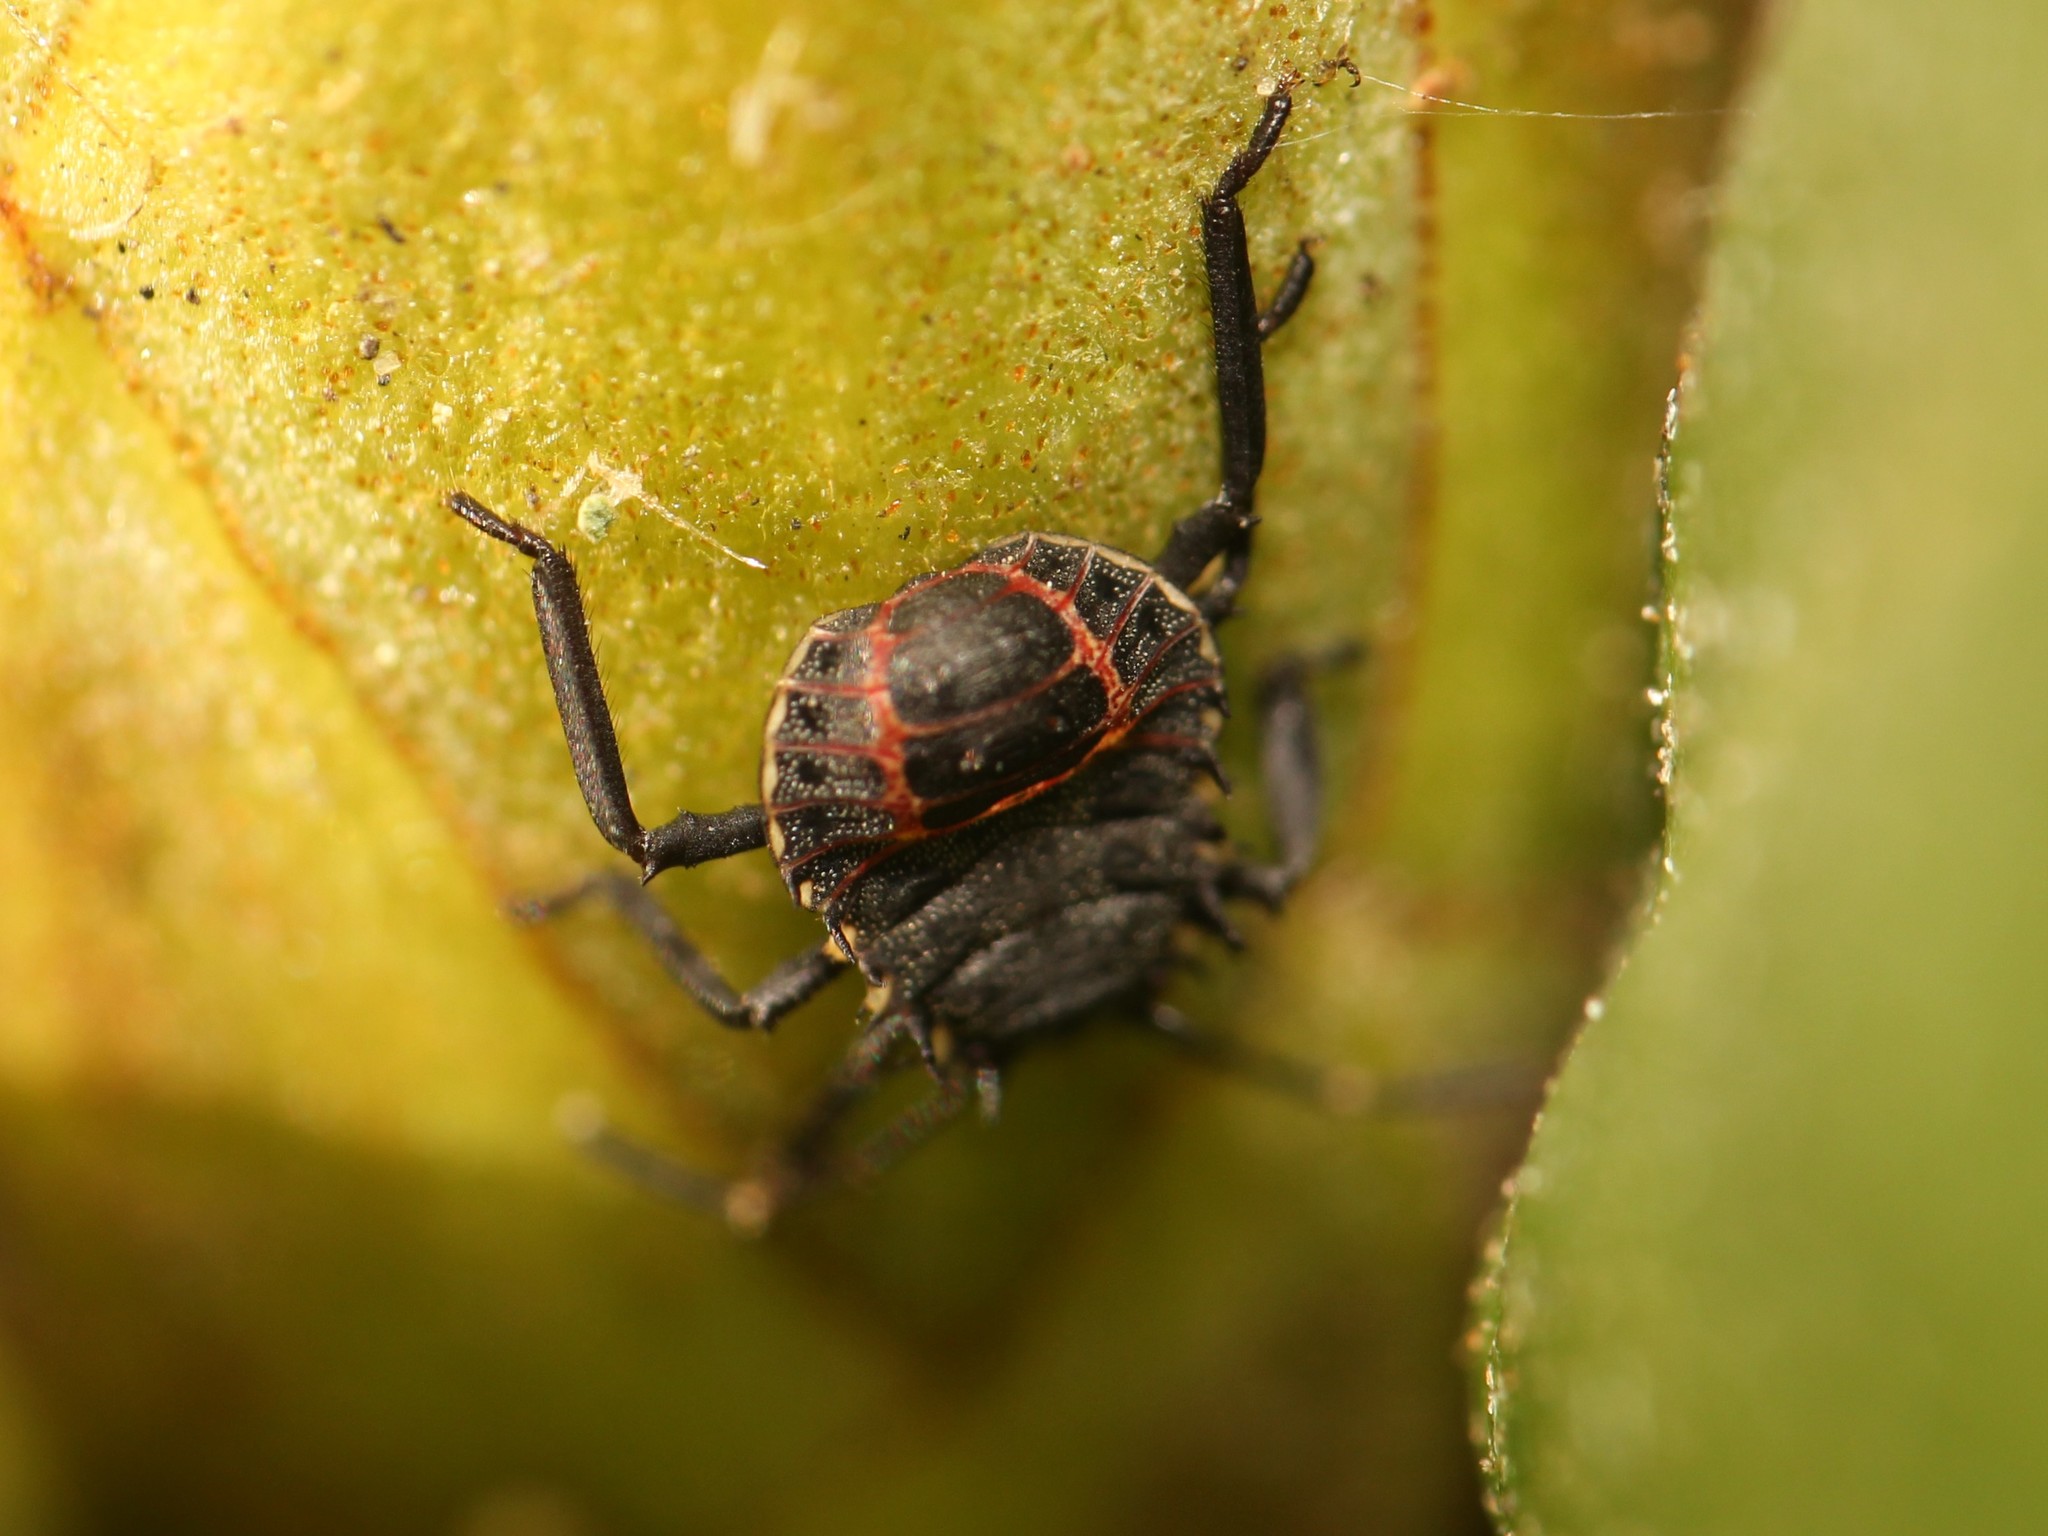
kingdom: Animalia
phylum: Arthropoda
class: Insecta
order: Hemiptera
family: Pentatomidae
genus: Halyomorpha
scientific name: Halyomorpha halys
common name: Brown marmorated stink bug
